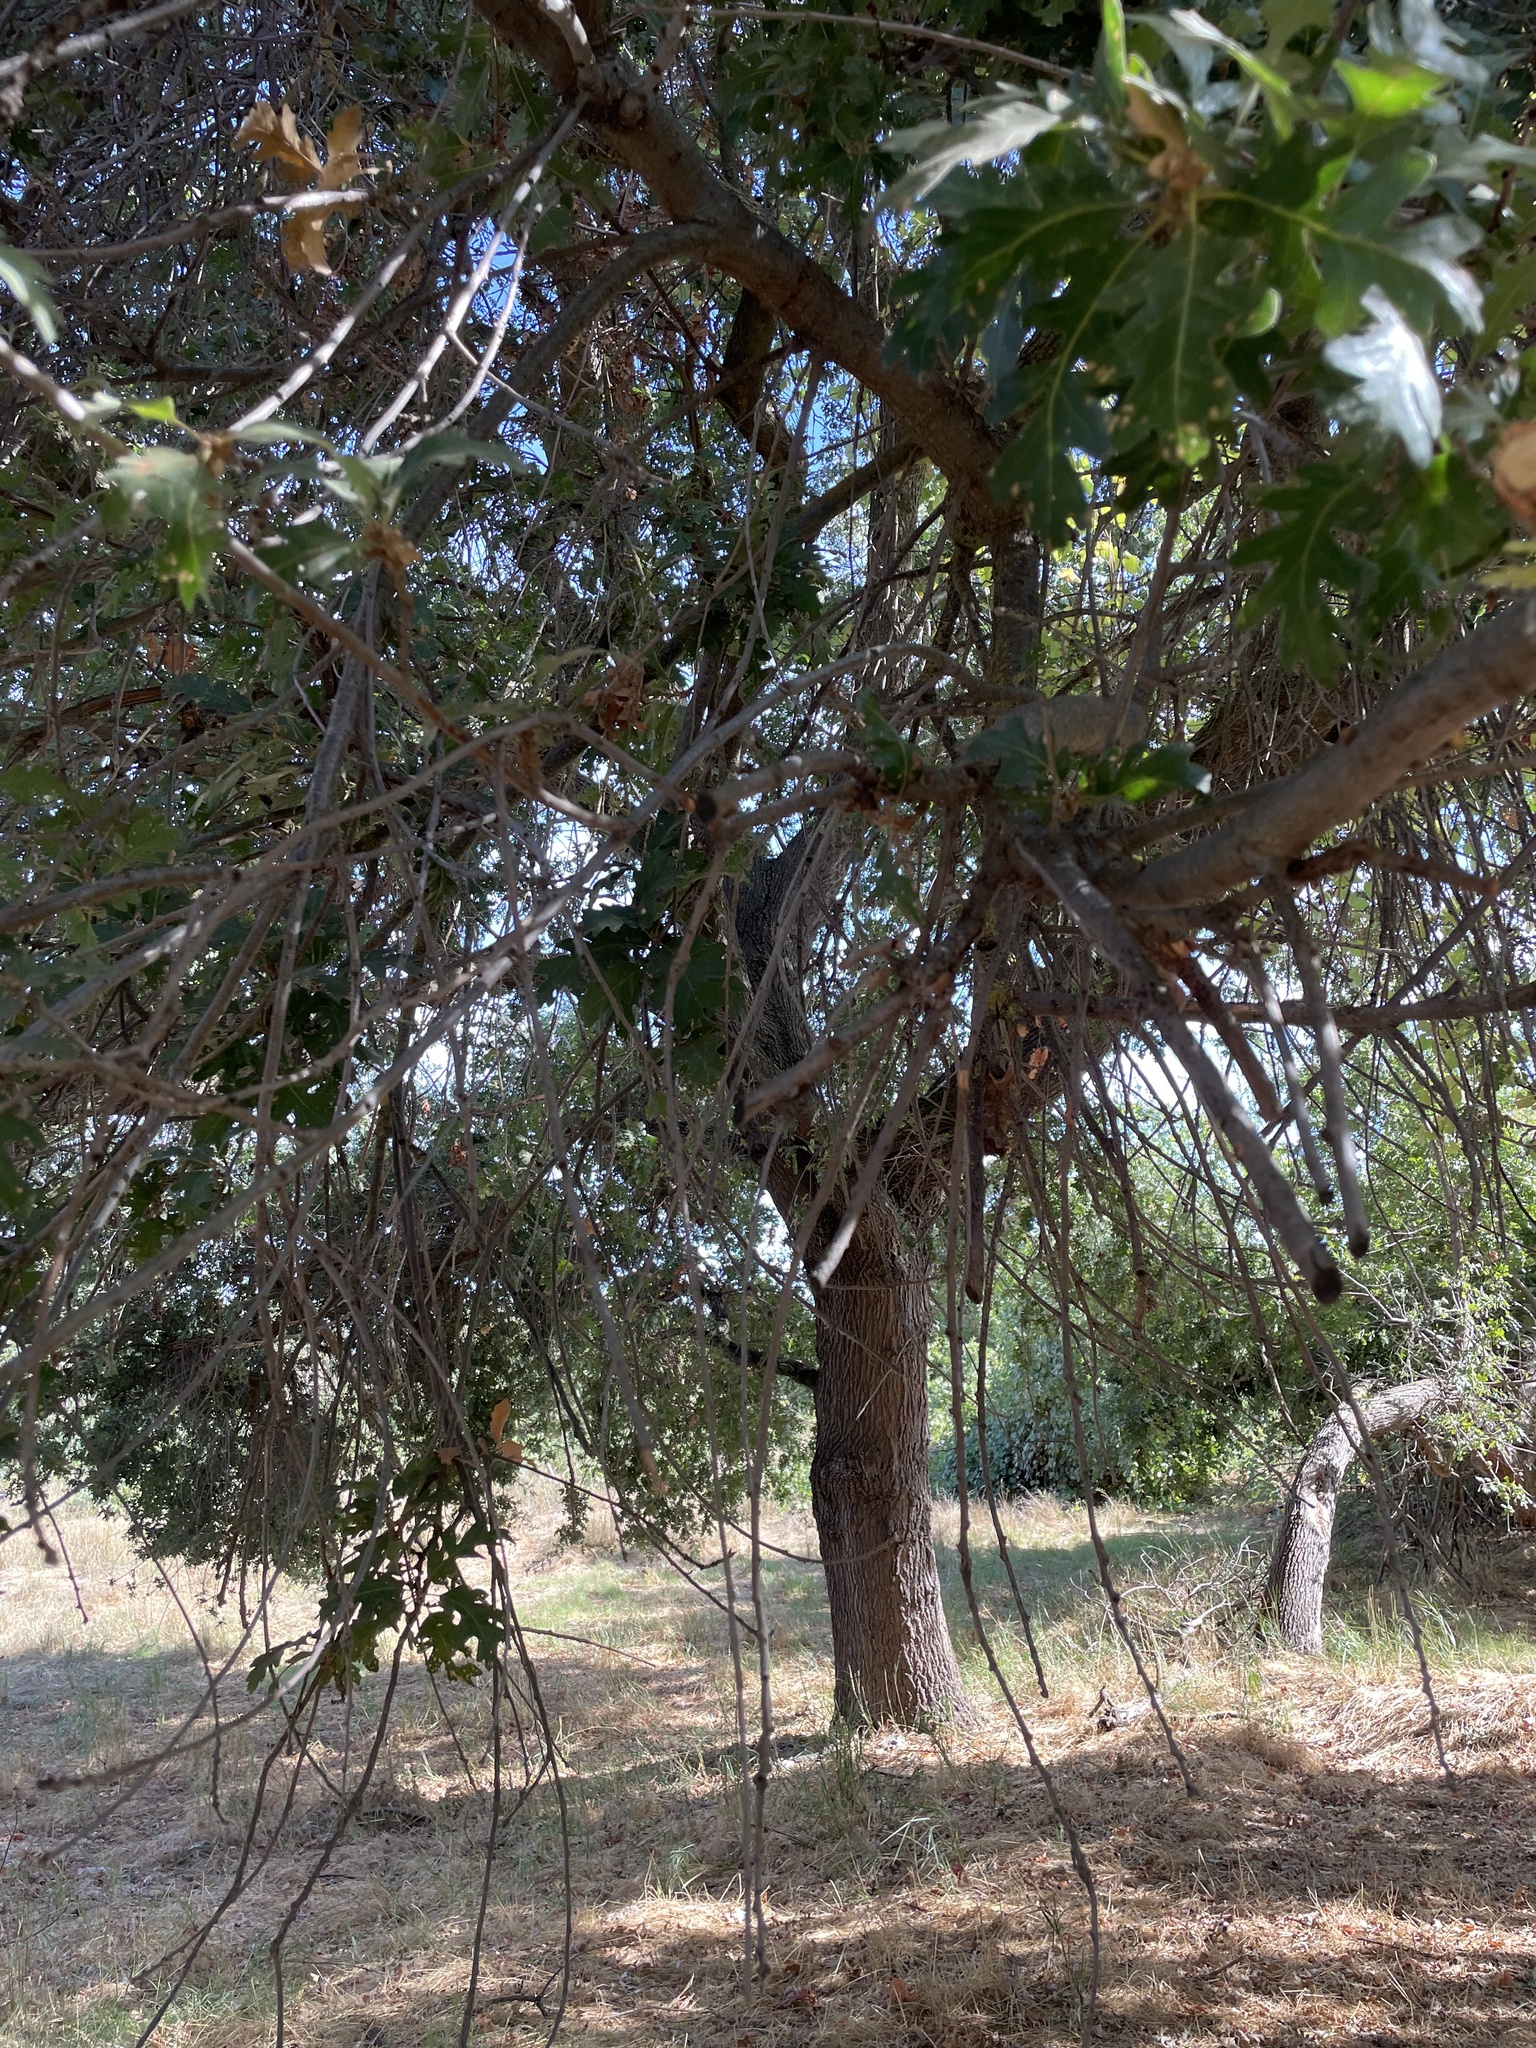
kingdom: Plantae
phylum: Tracheophyta
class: Magnoliopsida
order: Fagales
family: Fagaceae
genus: Quercus
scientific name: Quercus lobata
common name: Valley oak
